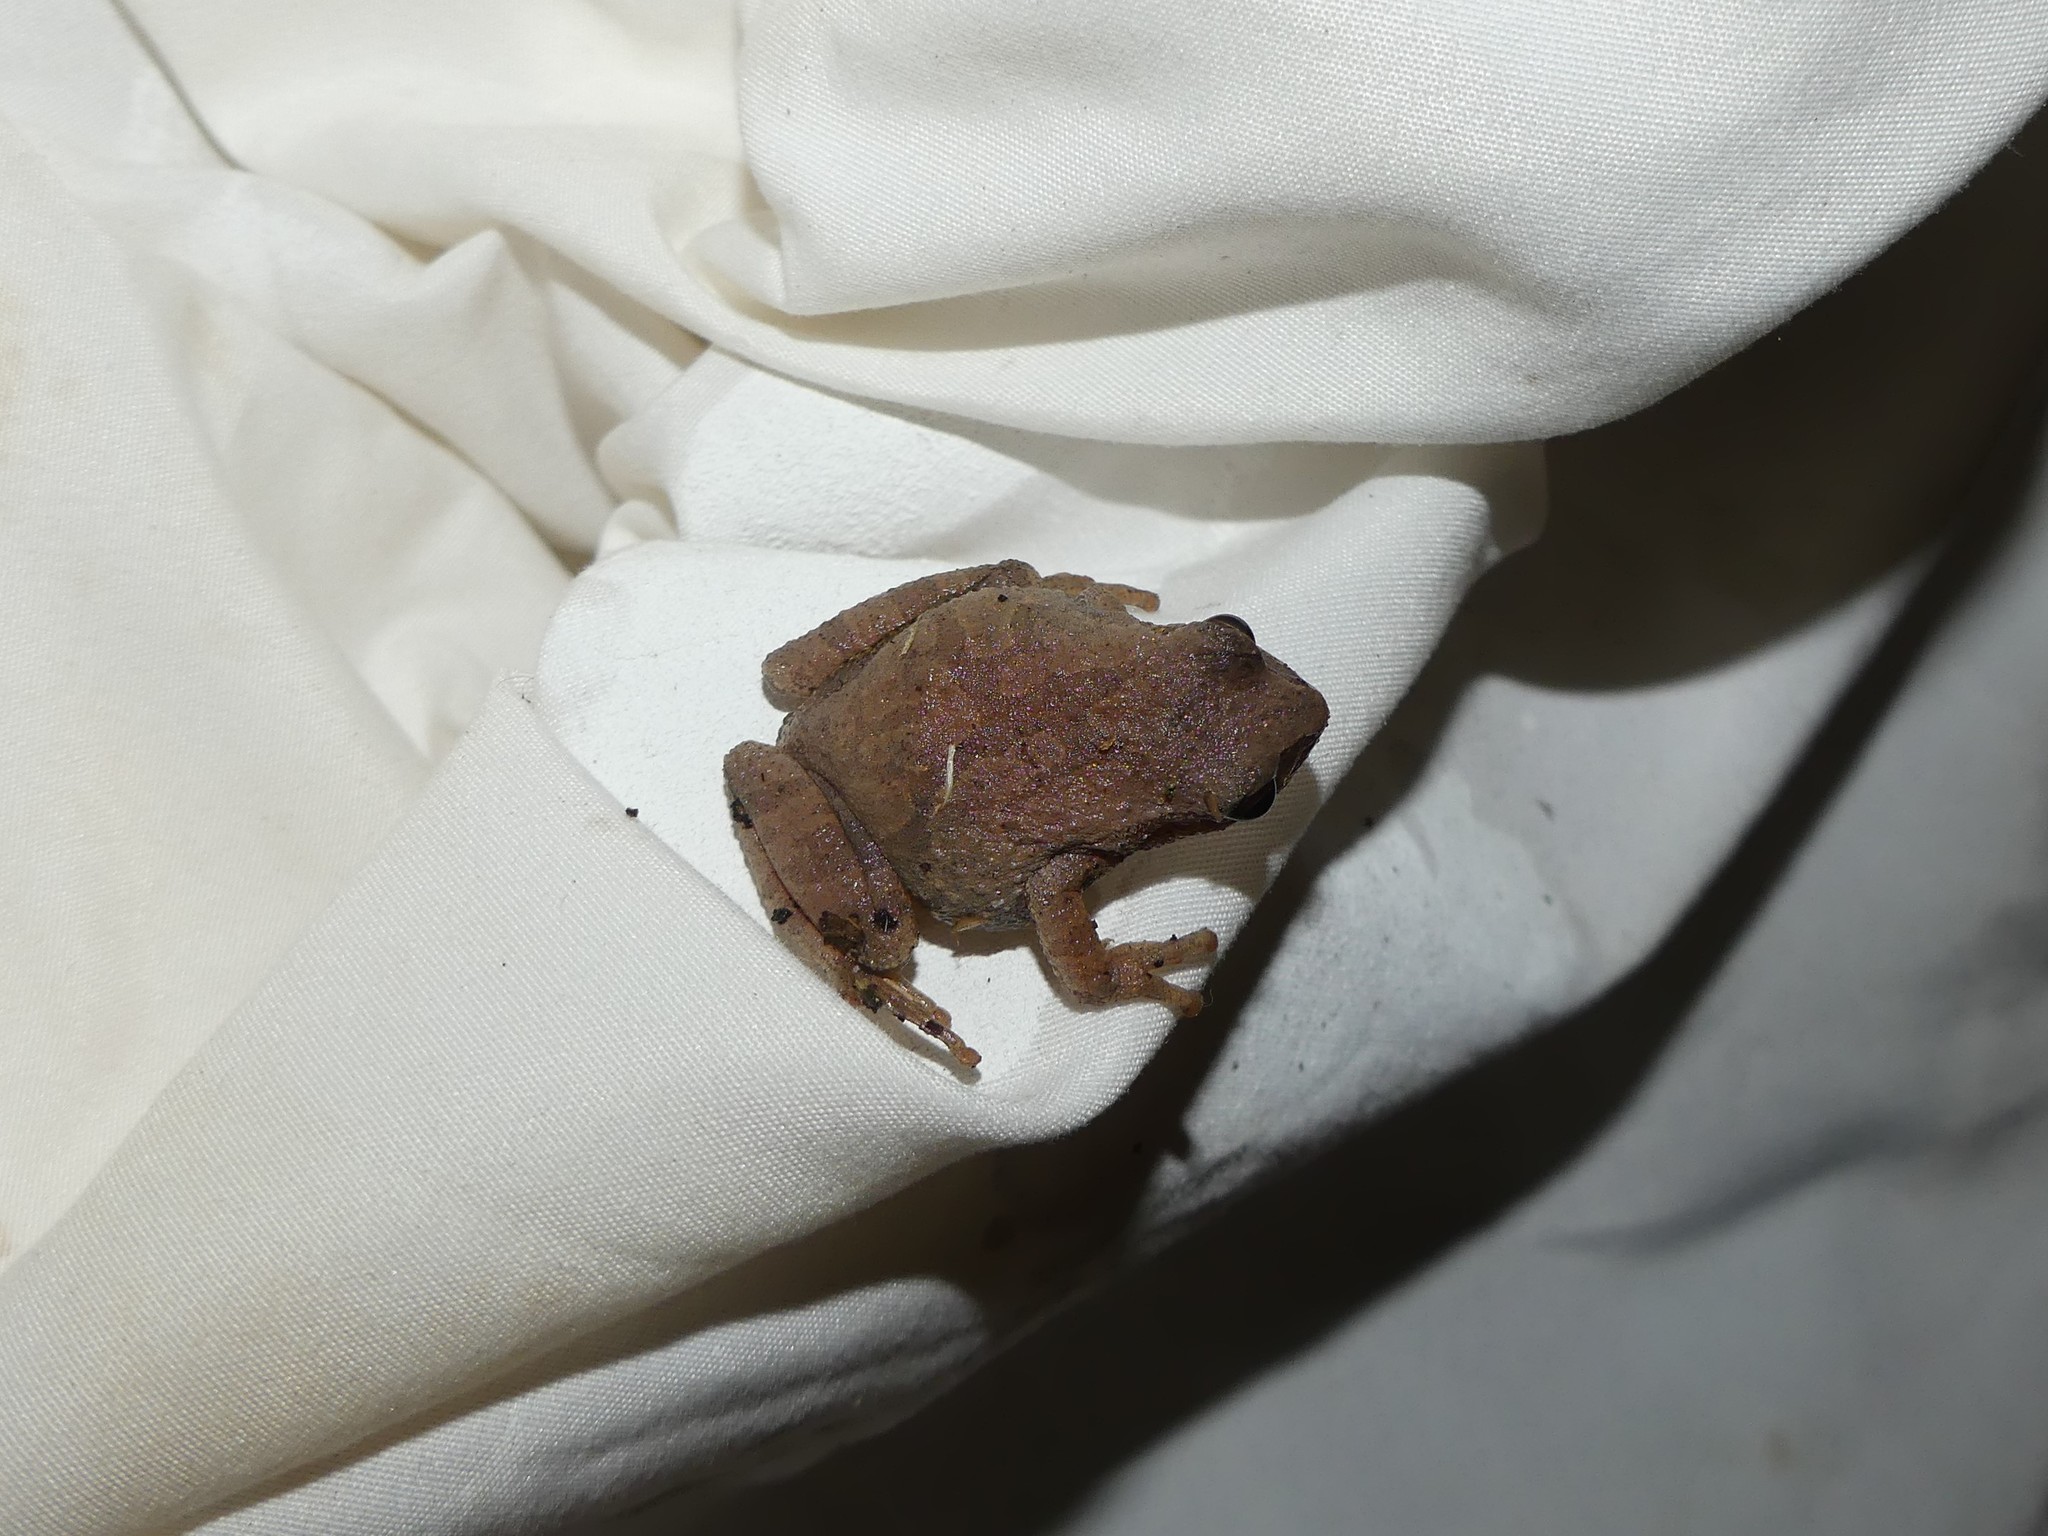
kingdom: Animalia
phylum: Chordata
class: Amphibia
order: Anura
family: Hylidae
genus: Pseudacris
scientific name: Pseudacris crucifer
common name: Spring peeper
